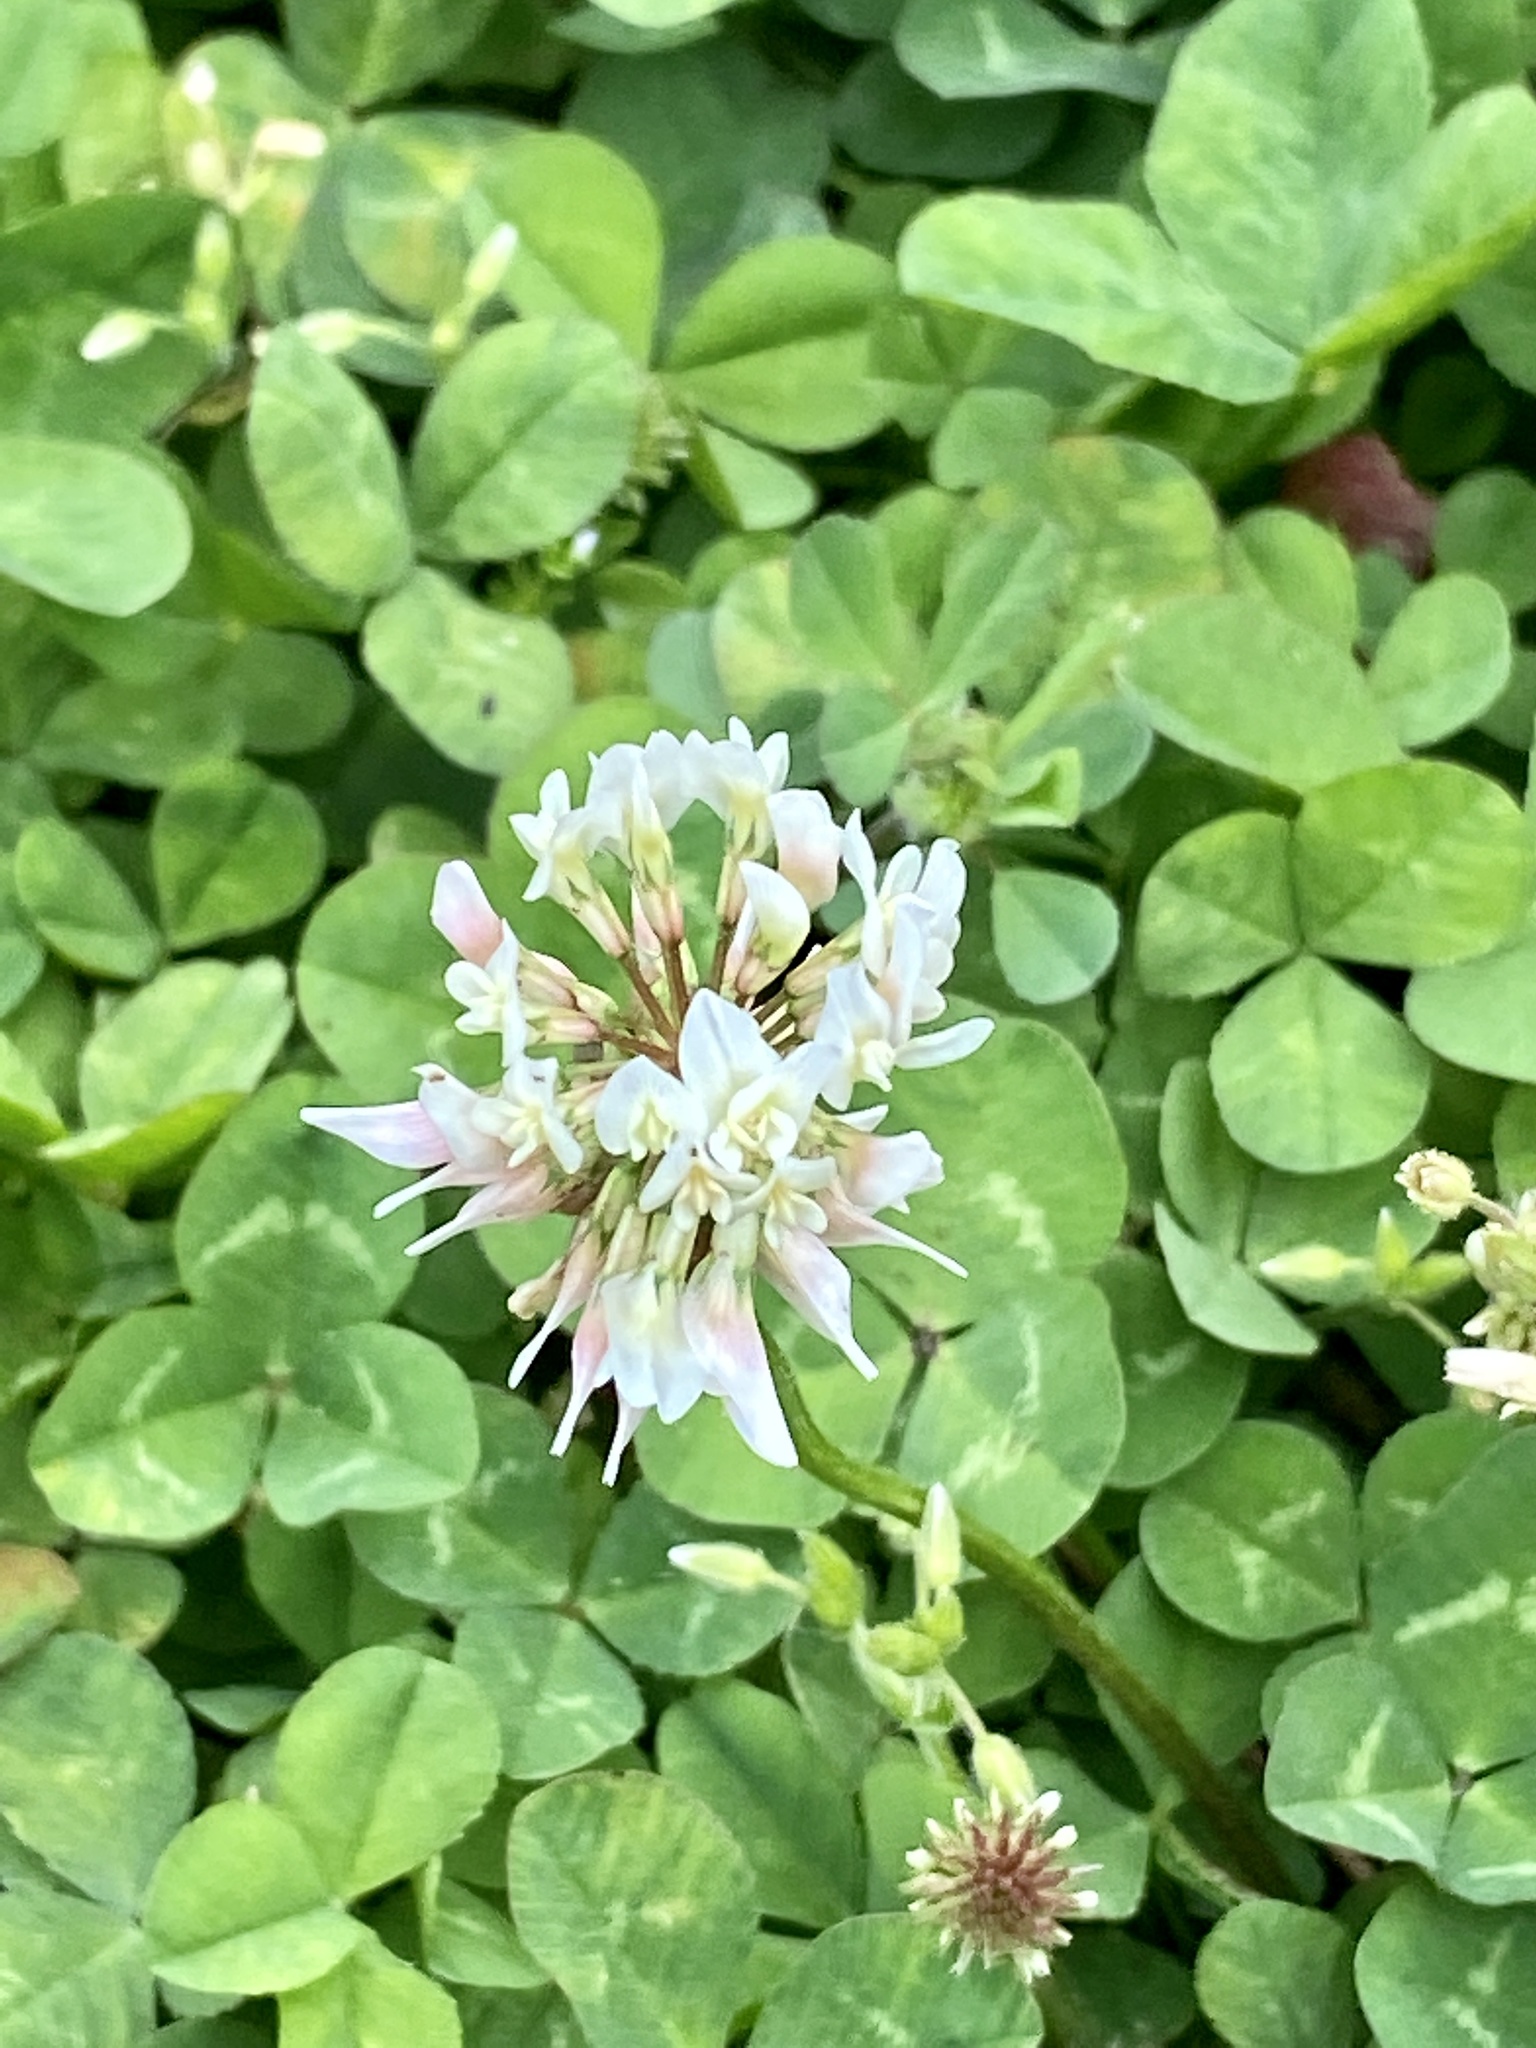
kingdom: Plantae
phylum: Tracheophyta
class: Magnoliopsida
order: Fabales
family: Fabaceae
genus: Trifolium
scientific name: Trifolium repens
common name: White clover
